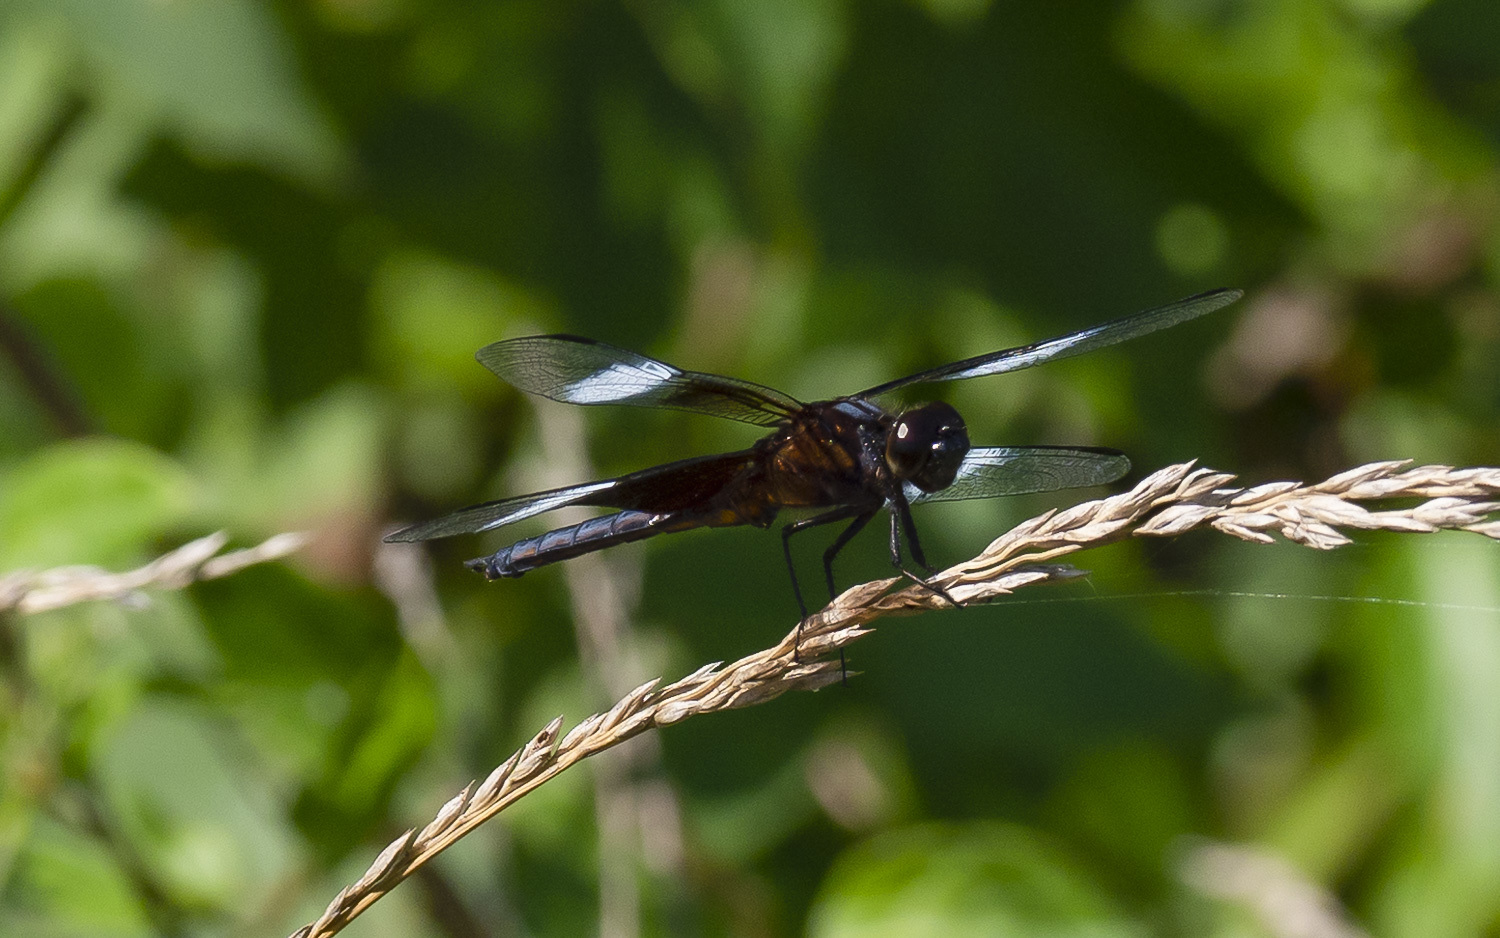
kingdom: Animalia
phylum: Arthropoda
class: Insecta
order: Odonata
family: Libellulidae
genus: Libellula
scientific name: Libellula luctuosa
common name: Widow skimmer
